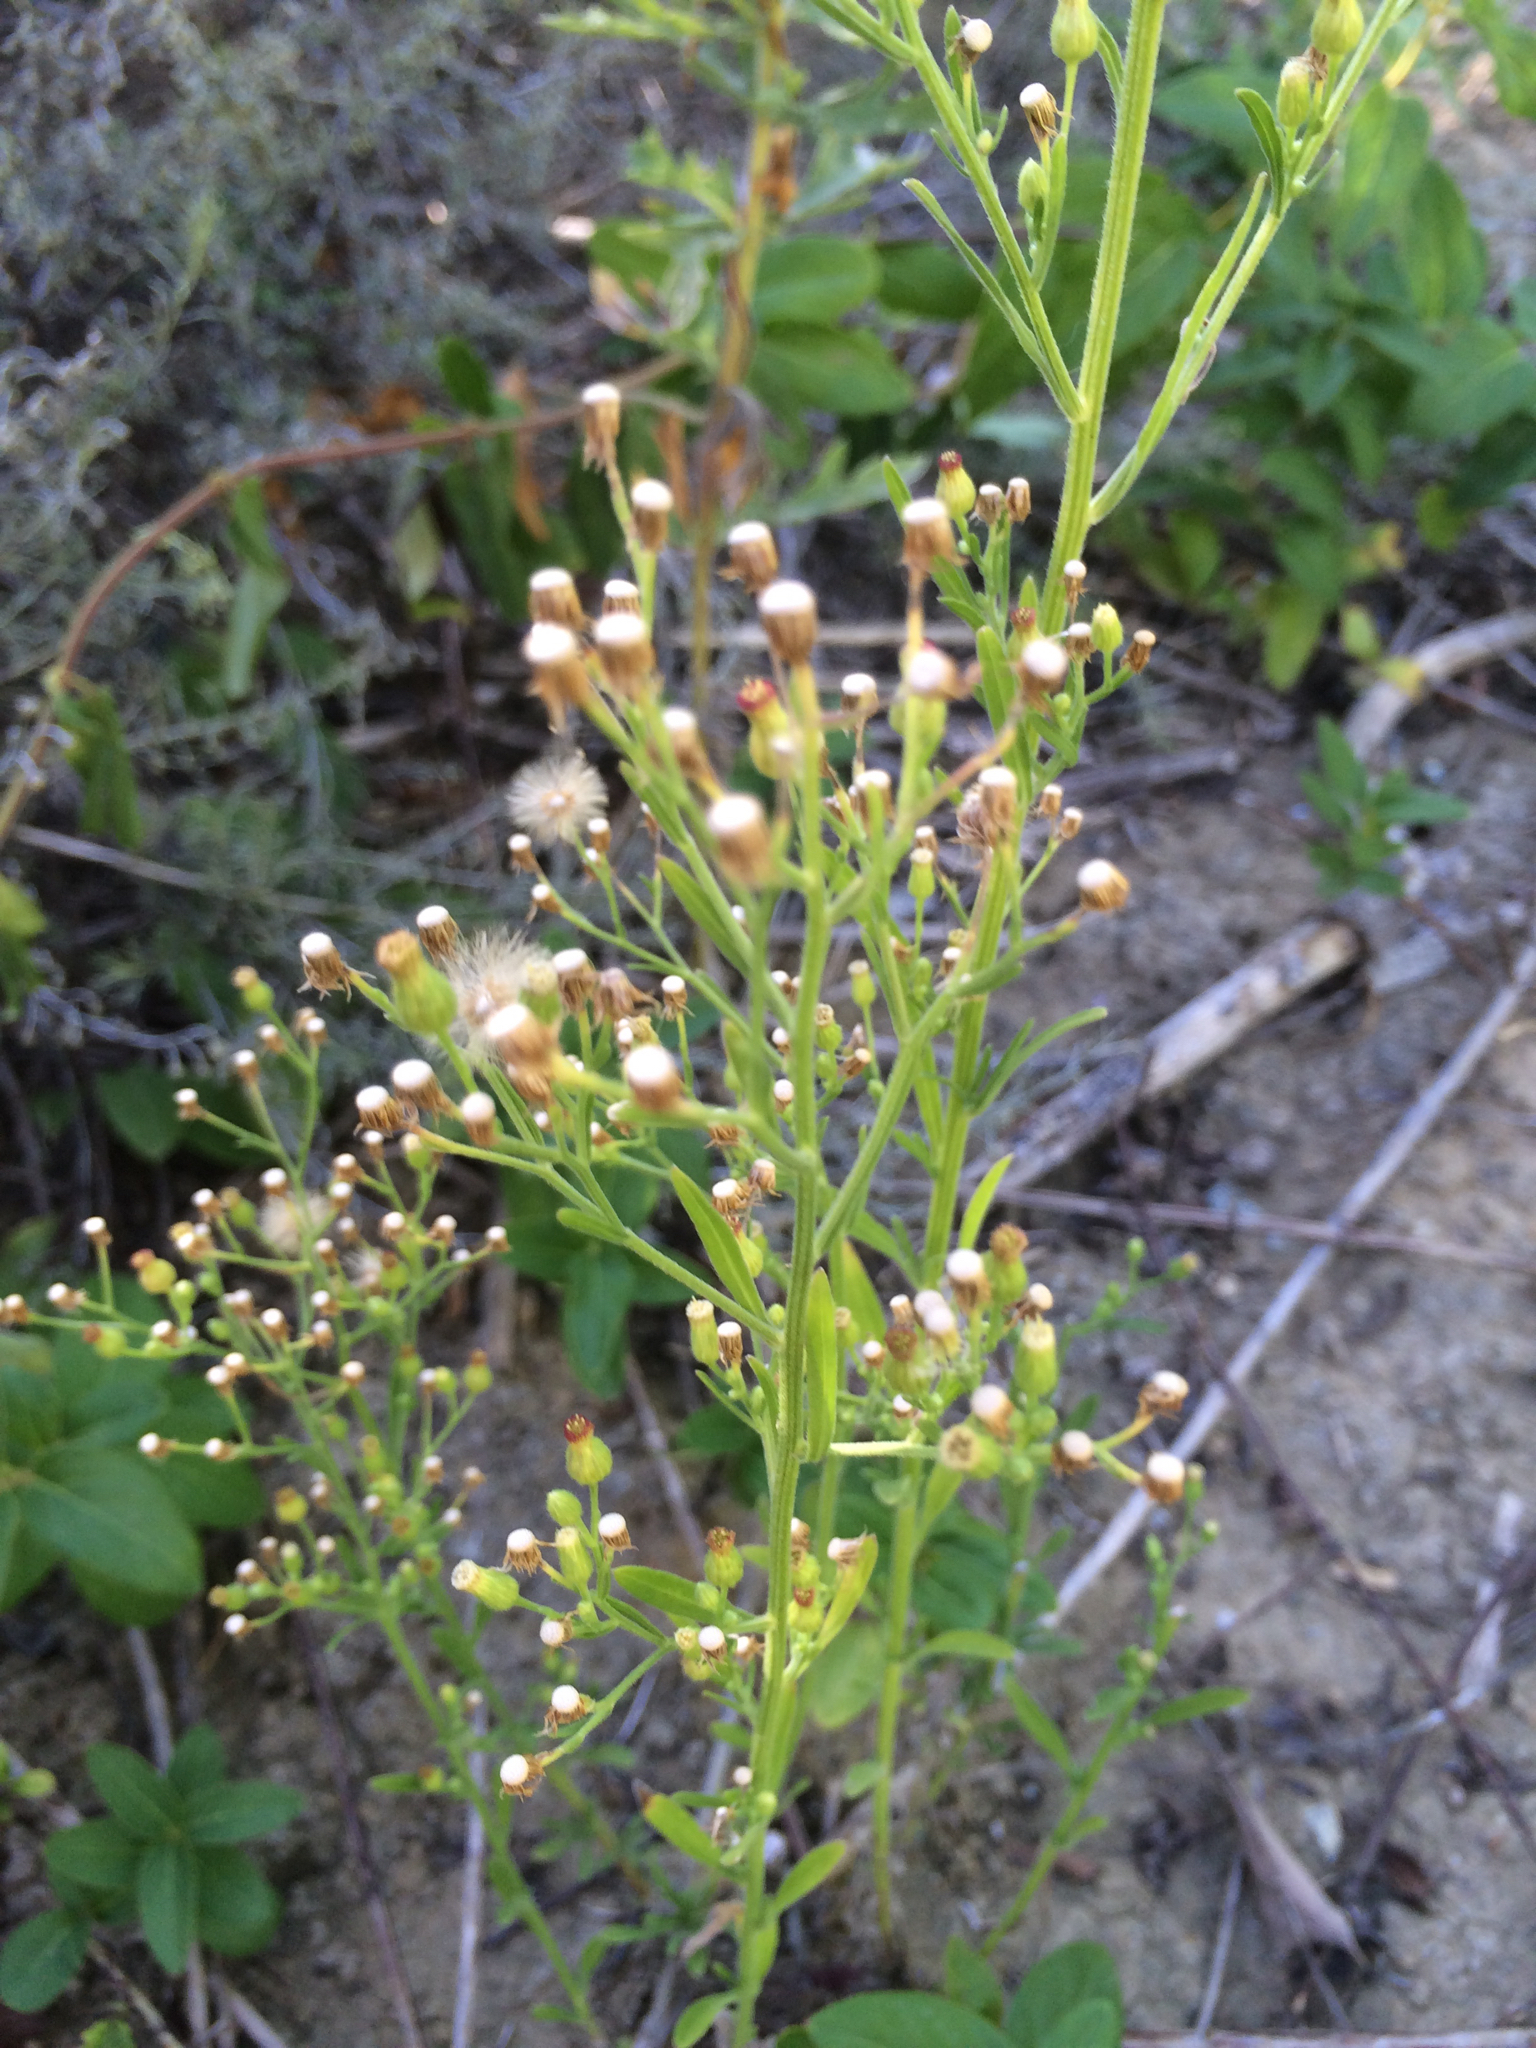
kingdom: Plantae
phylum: Tracheophyta
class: Magnoliopsida
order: Asterales
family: Asteraceae
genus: Erigeron
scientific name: Erigeron canadensis
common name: Canadian fleabane
